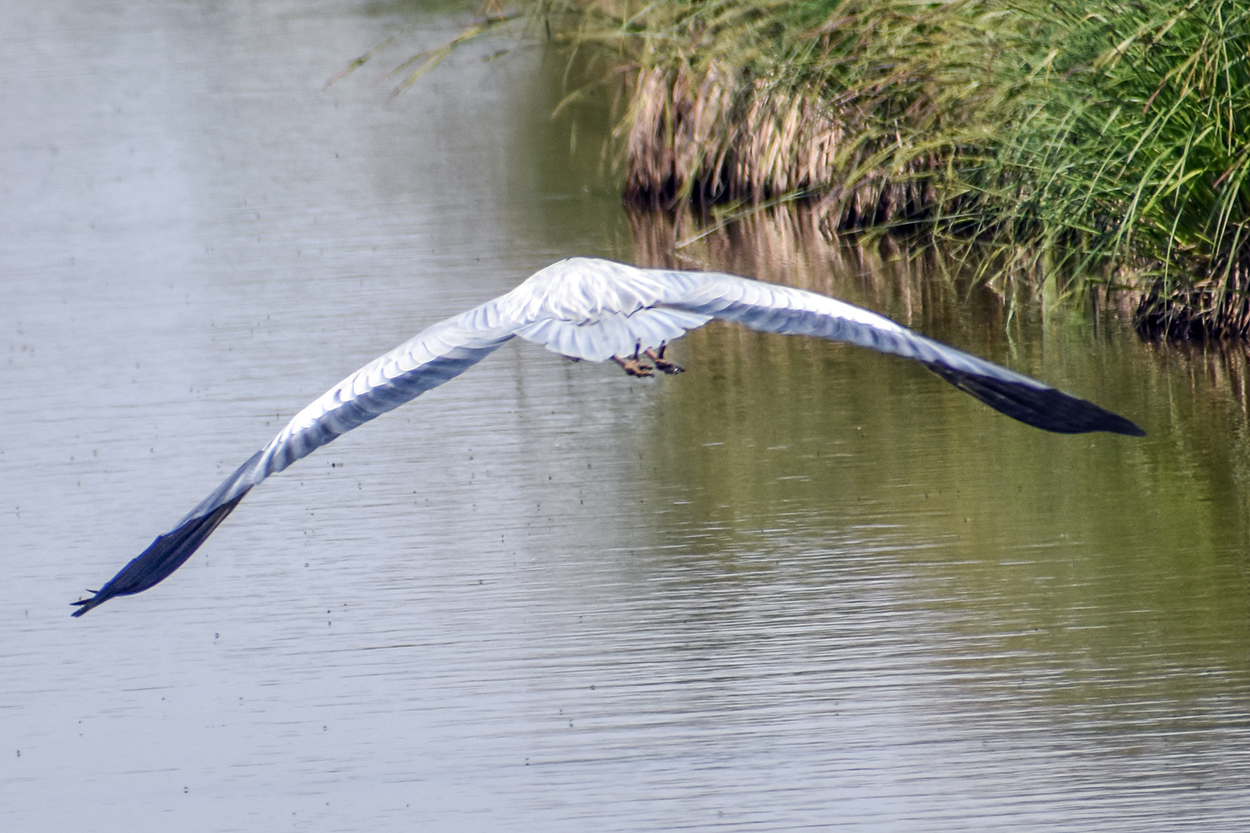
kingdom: Animalia
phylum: Chordata
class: Aves
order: Pelecaniformes
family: Ardeidae
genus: Ardea
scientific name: Ardea cinerea
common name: Grey heron
